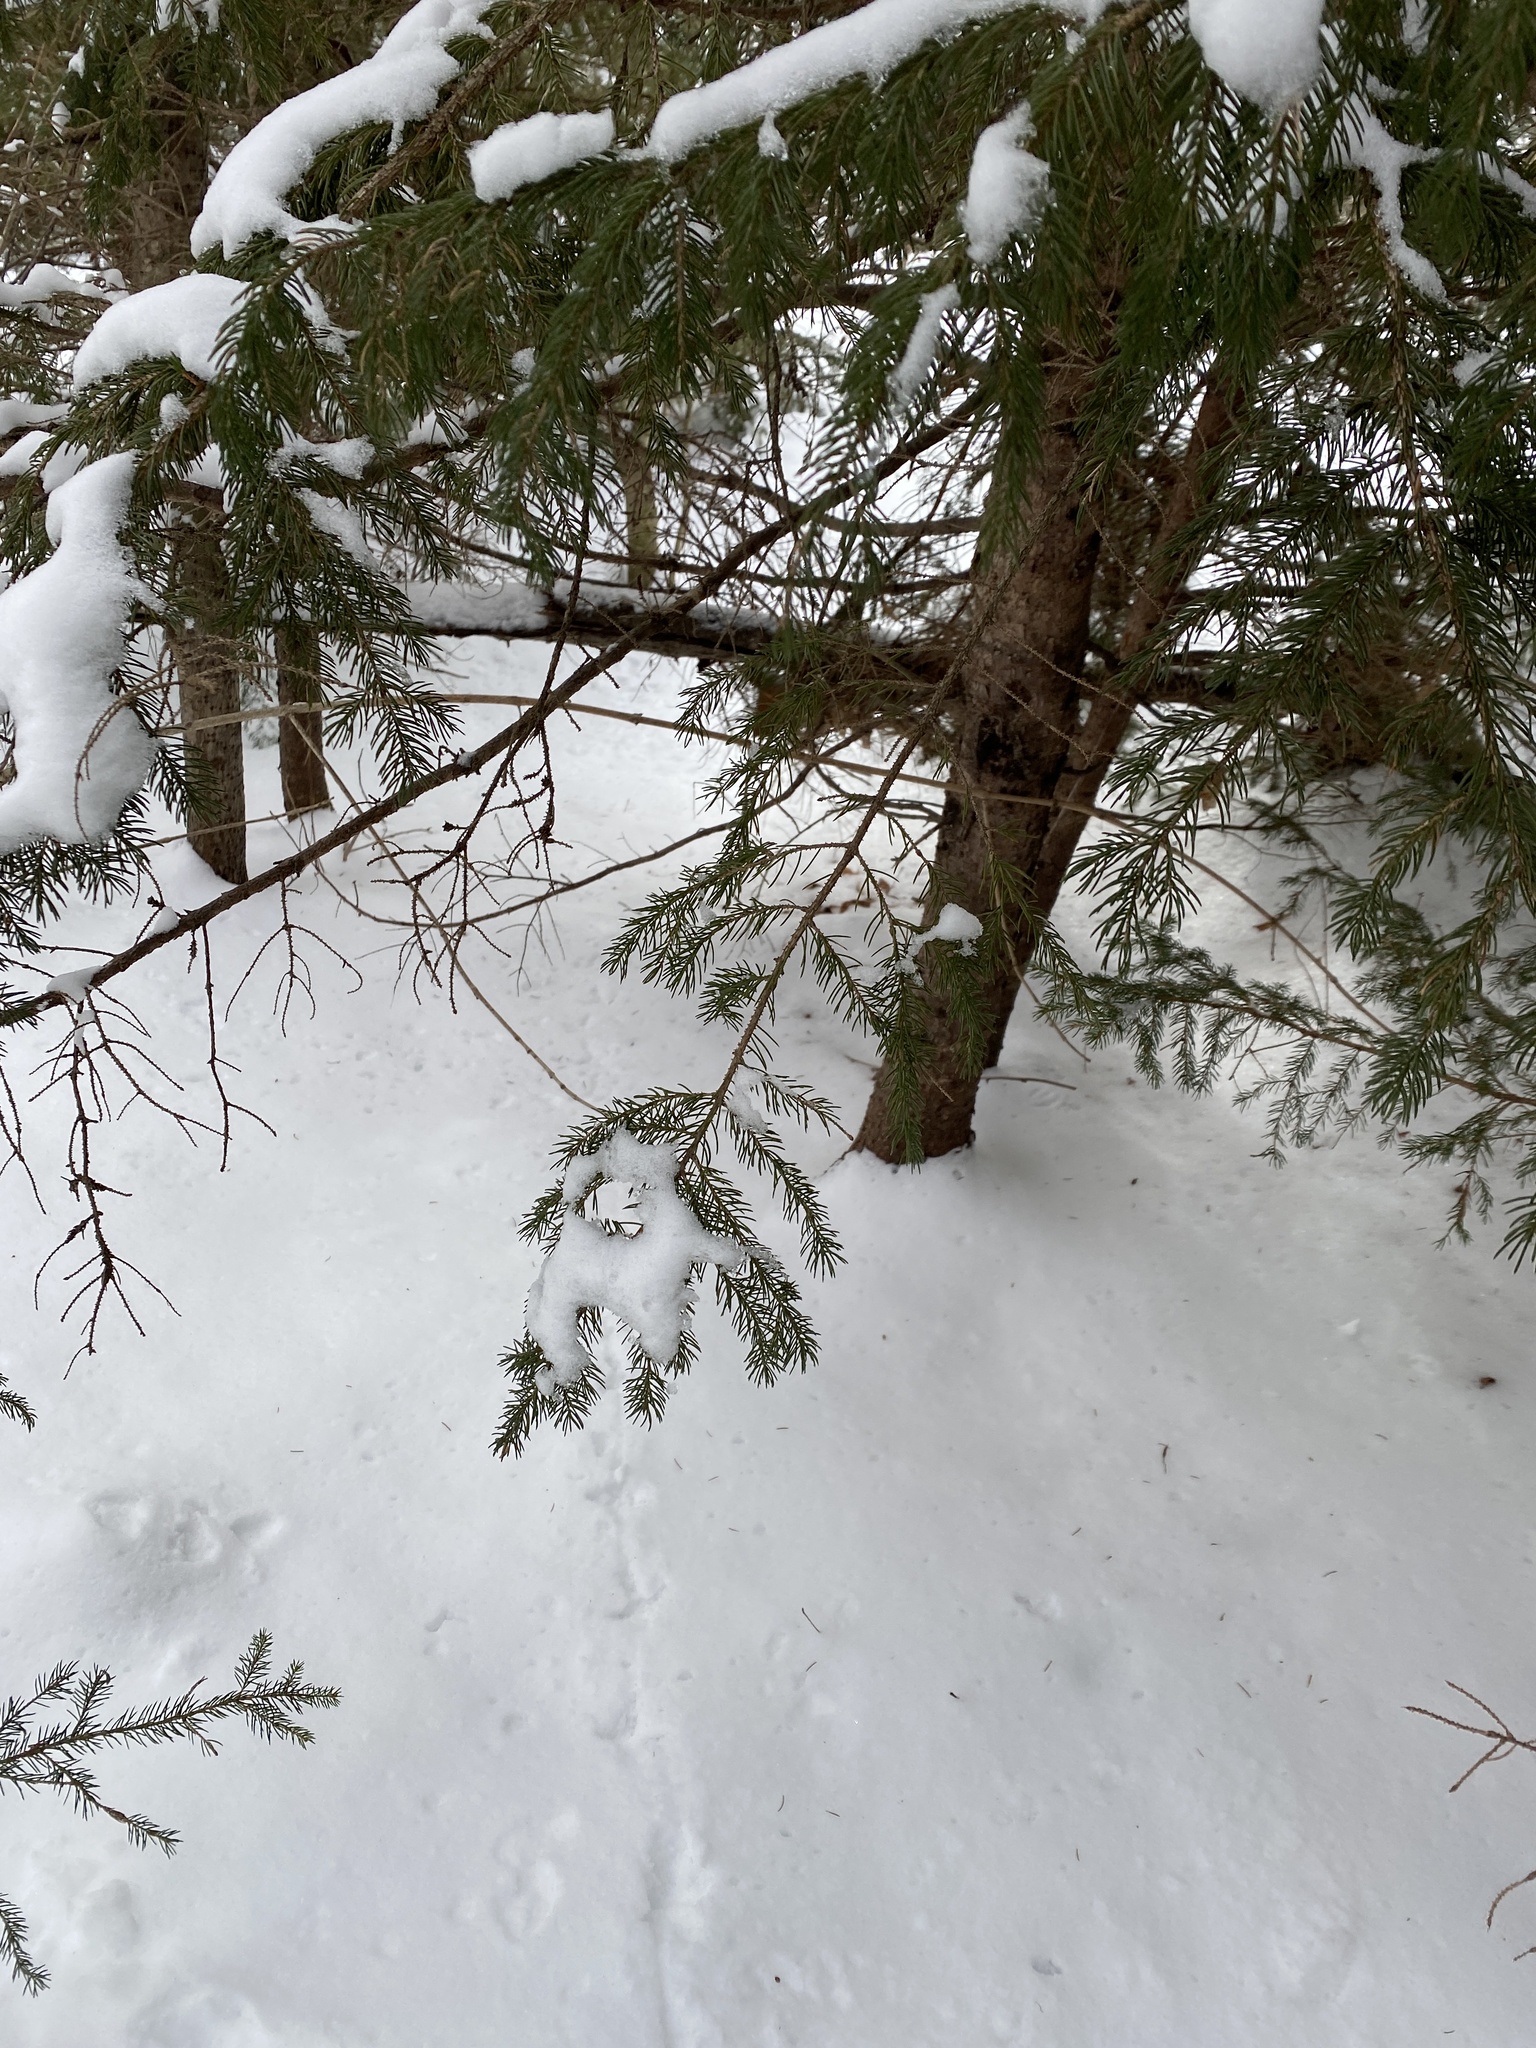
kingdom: Animalia
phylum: Chordata
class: Aves
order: Galliformes
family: Phasianidae
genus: Bonasa
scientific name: Bonasa umbellus
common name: Ruffed grouse
